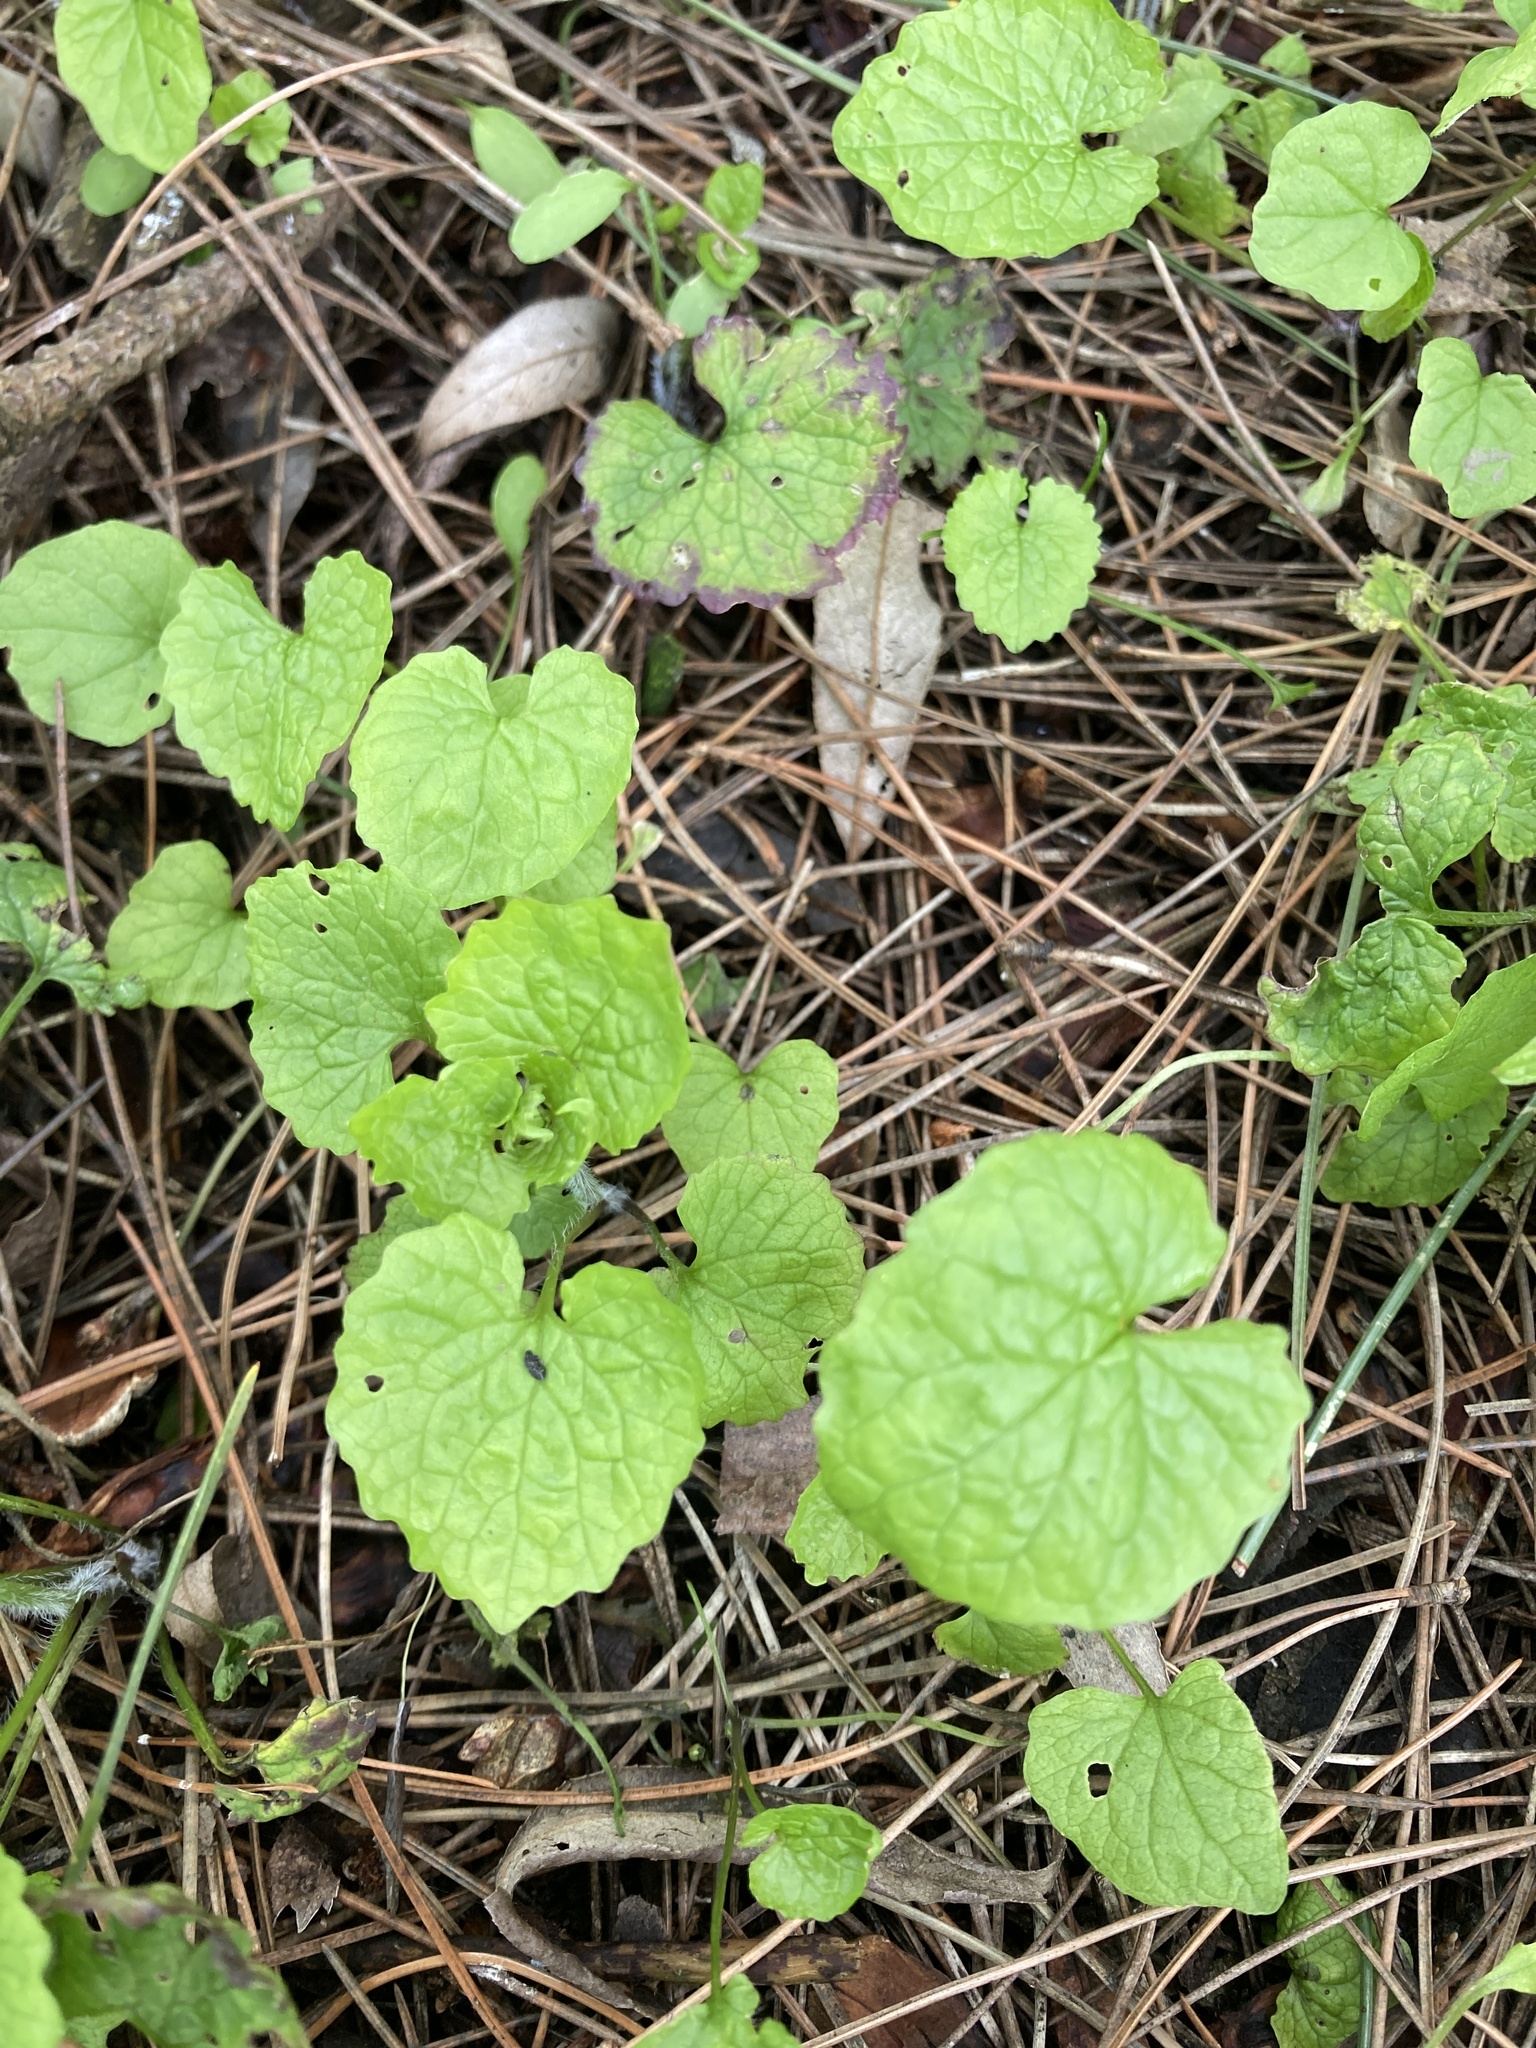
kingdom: Plantae
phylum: Tracheophyta
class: Magnoliopsida
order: Brassicales
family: Brassicaceae
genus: Alliaria
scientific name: Alliaria petiolata
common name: Garlic mustard
